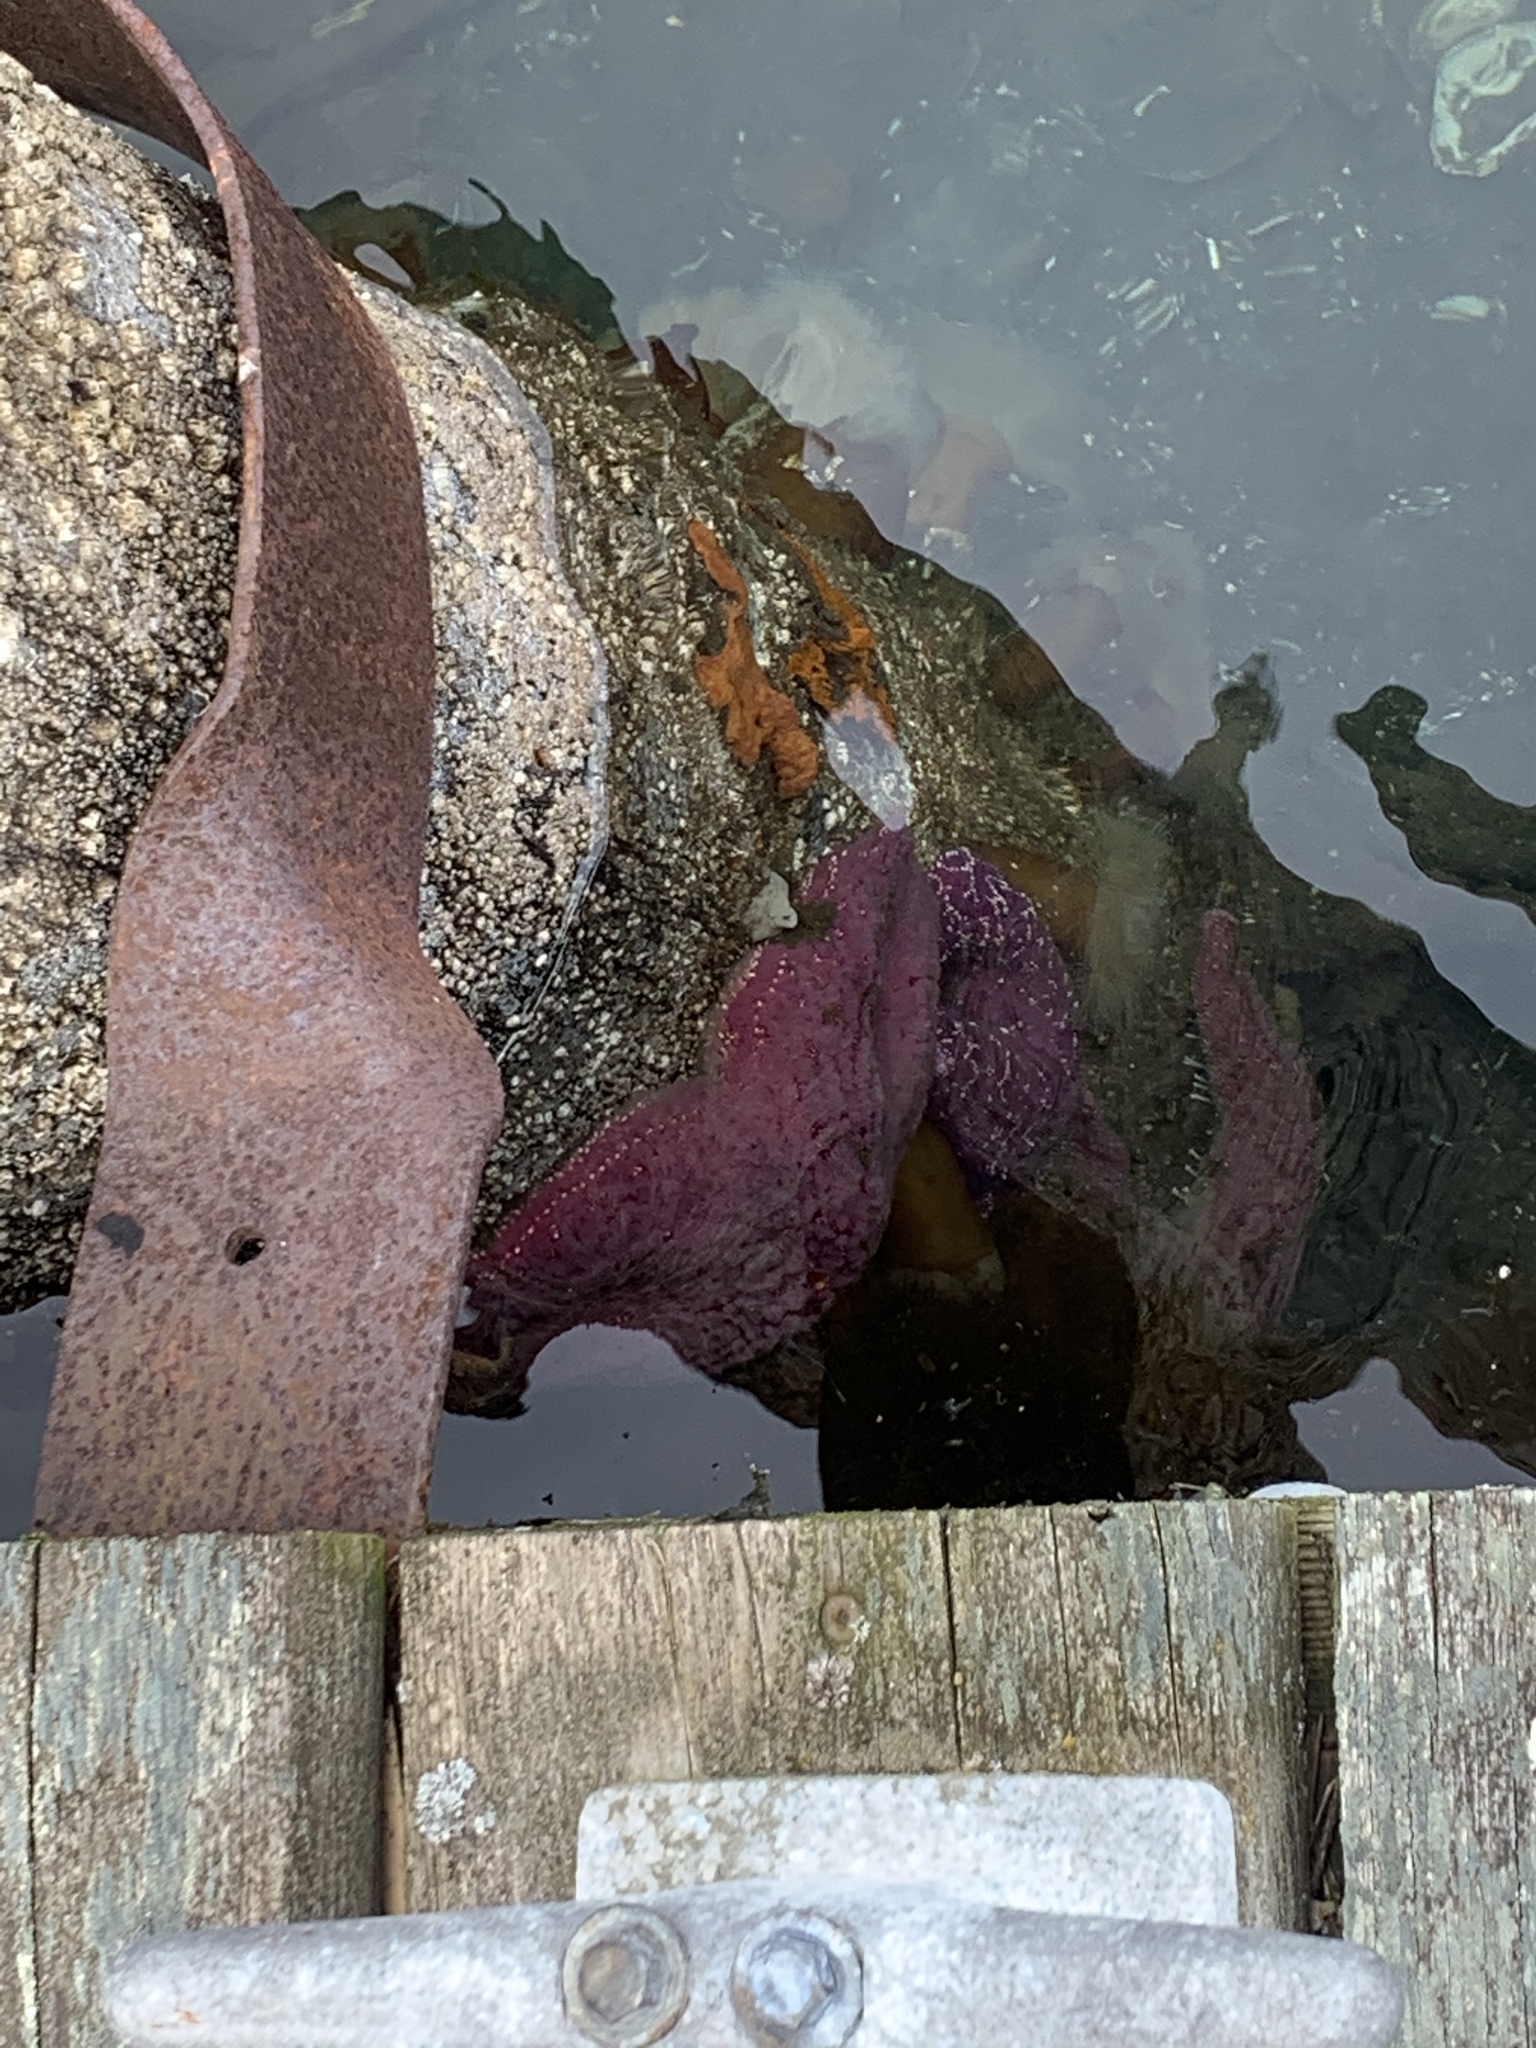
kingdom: Animalia
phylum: Echinodermata
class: Asteroidea
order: Forcipulatida
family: Asteriidae
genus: Pisaster
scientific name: Pisaster ochraceus
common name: Ochre stars
